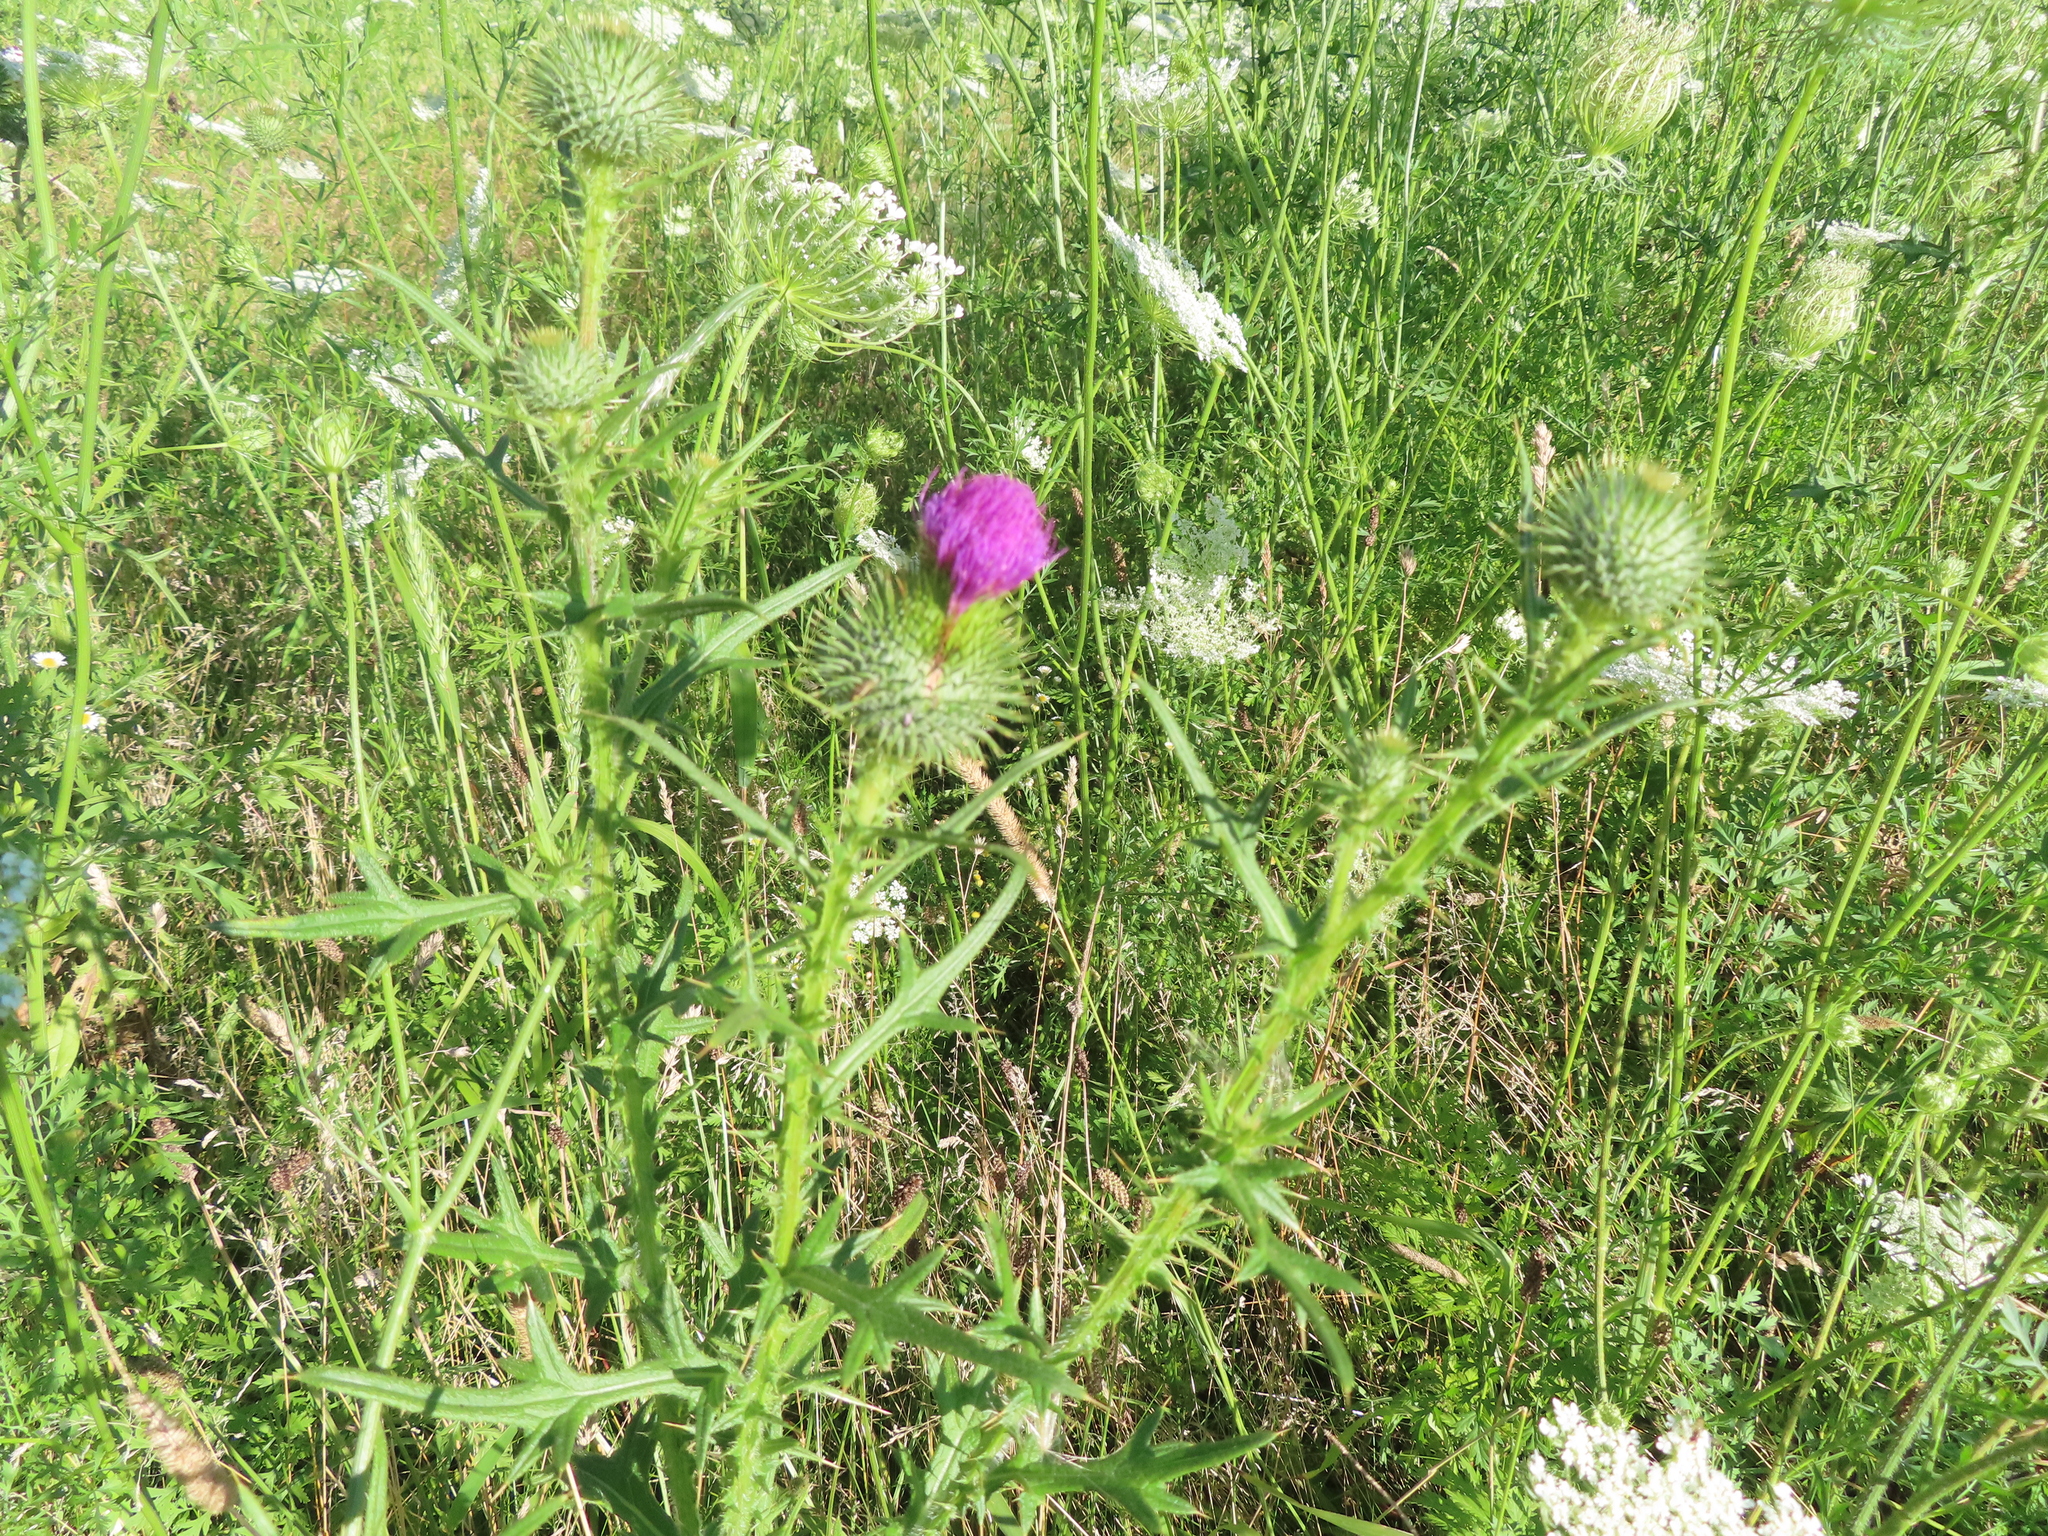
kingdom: Plantae
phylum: Tracheophyta
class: Magnoliopsida
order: Asterales
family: Asteraceae
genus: Cirsium
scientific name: Cirsium vulgare
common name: Bull thistle
